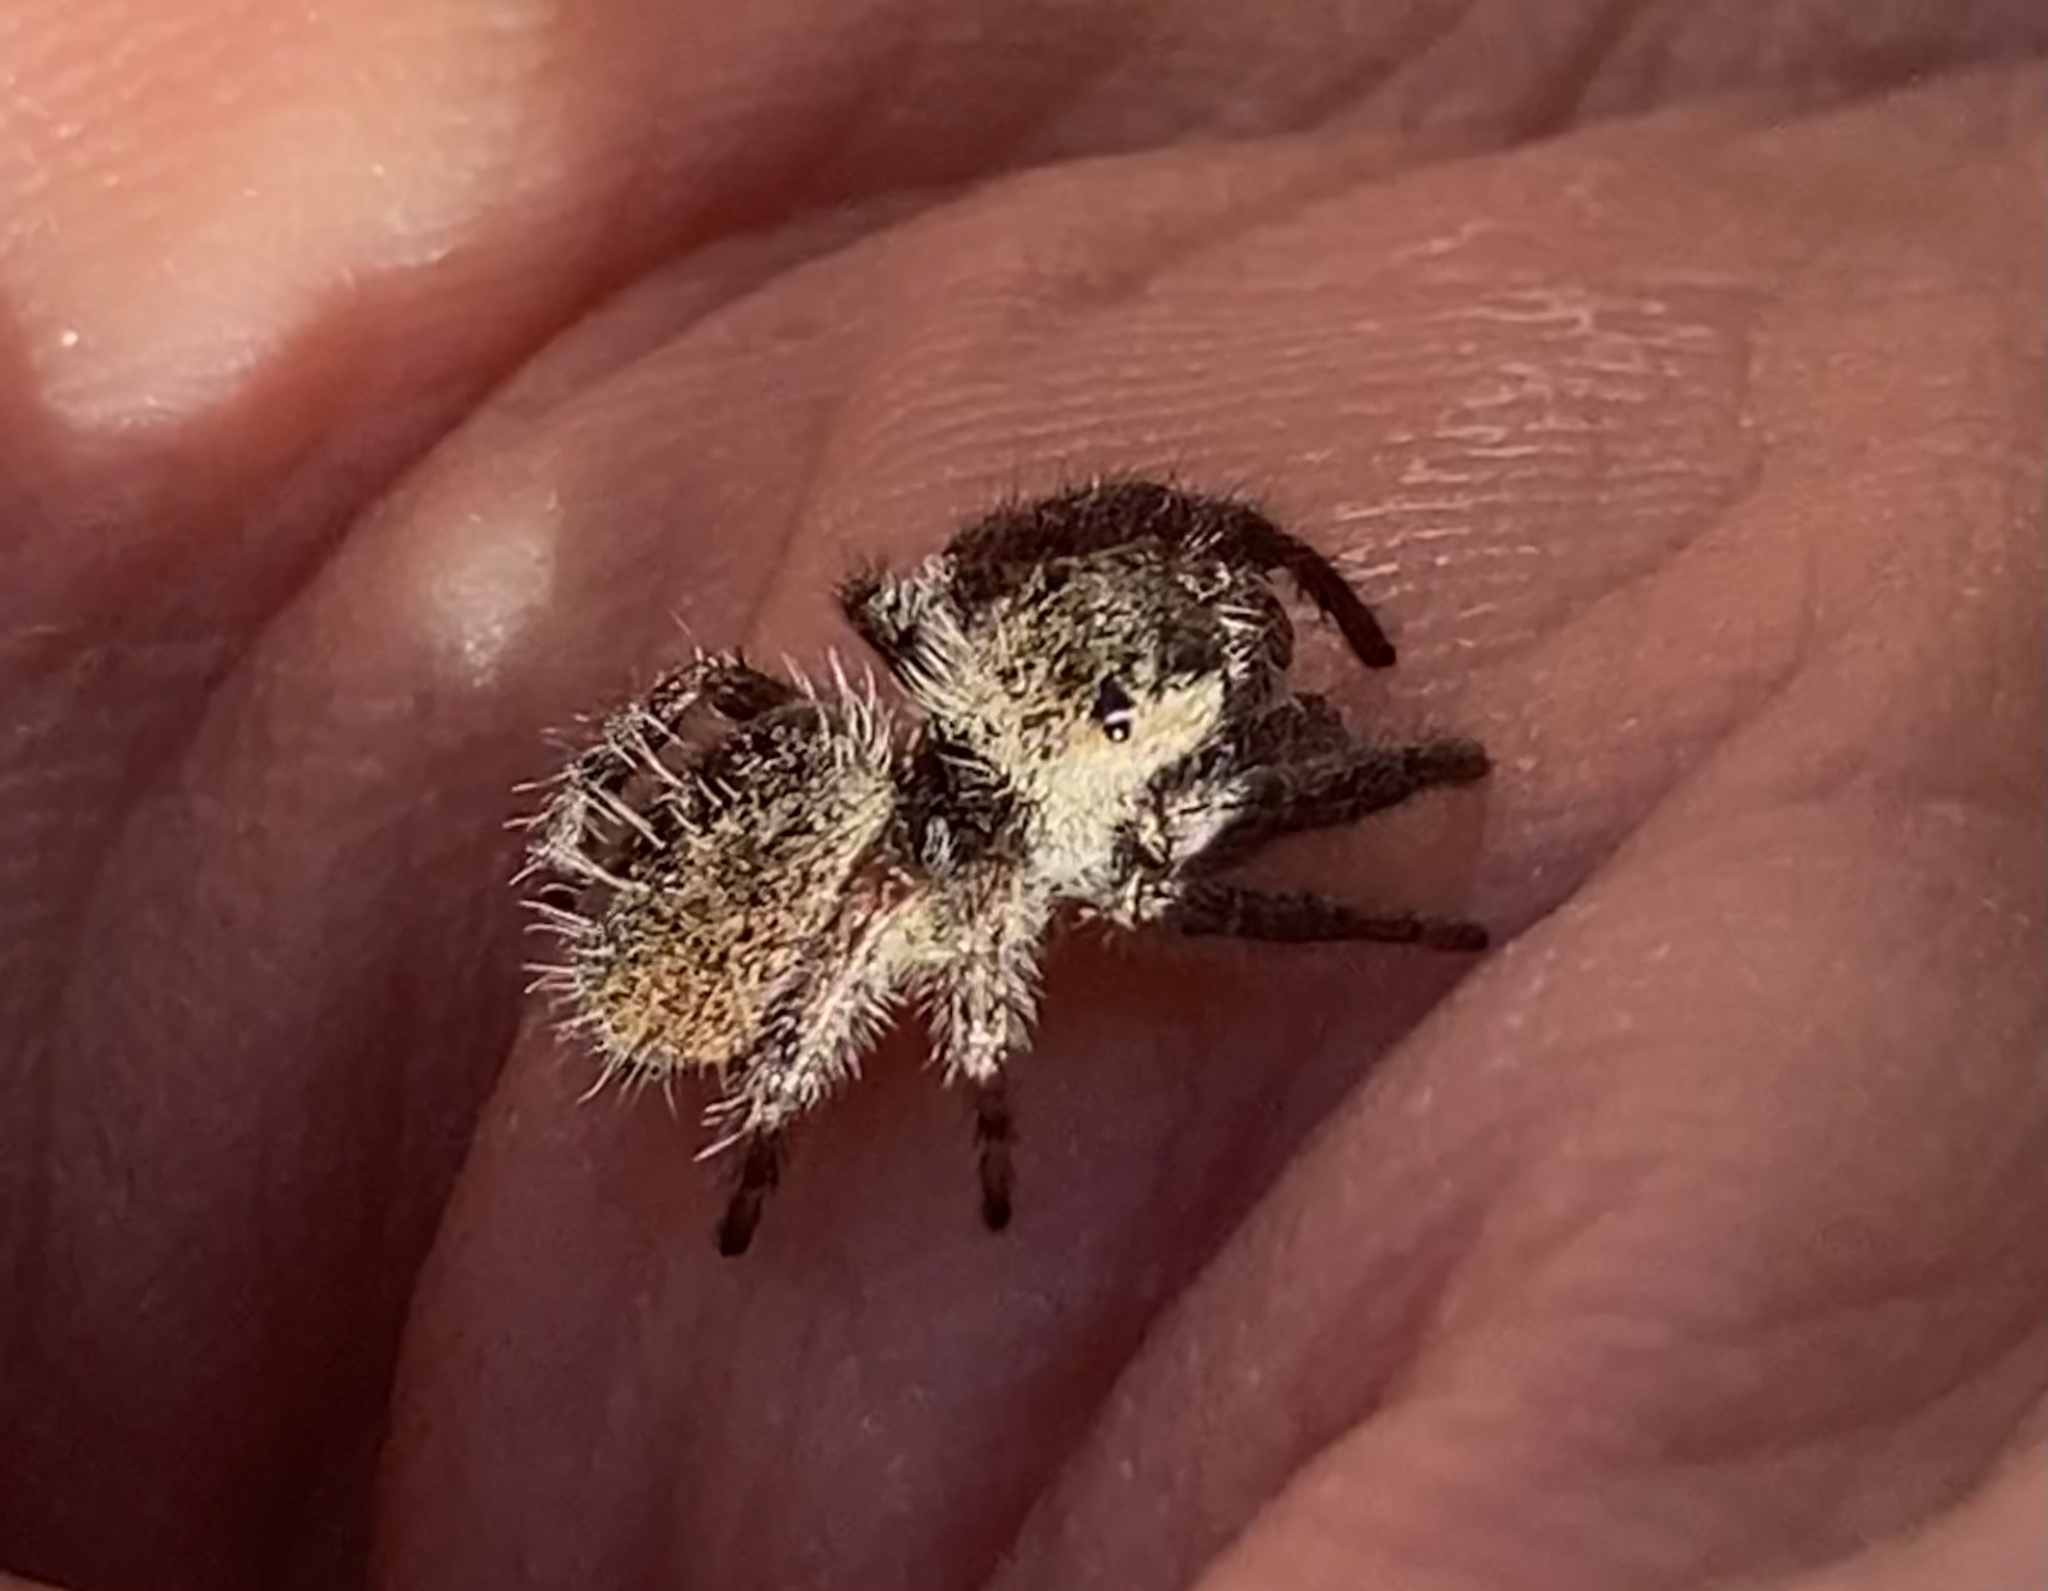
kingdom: Animalia
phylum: Arthropoda
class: Arachnida
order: Araneae
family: Salticidae
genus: Phidippus
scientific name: Phidippus princeps
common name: Grayish jumping spider
